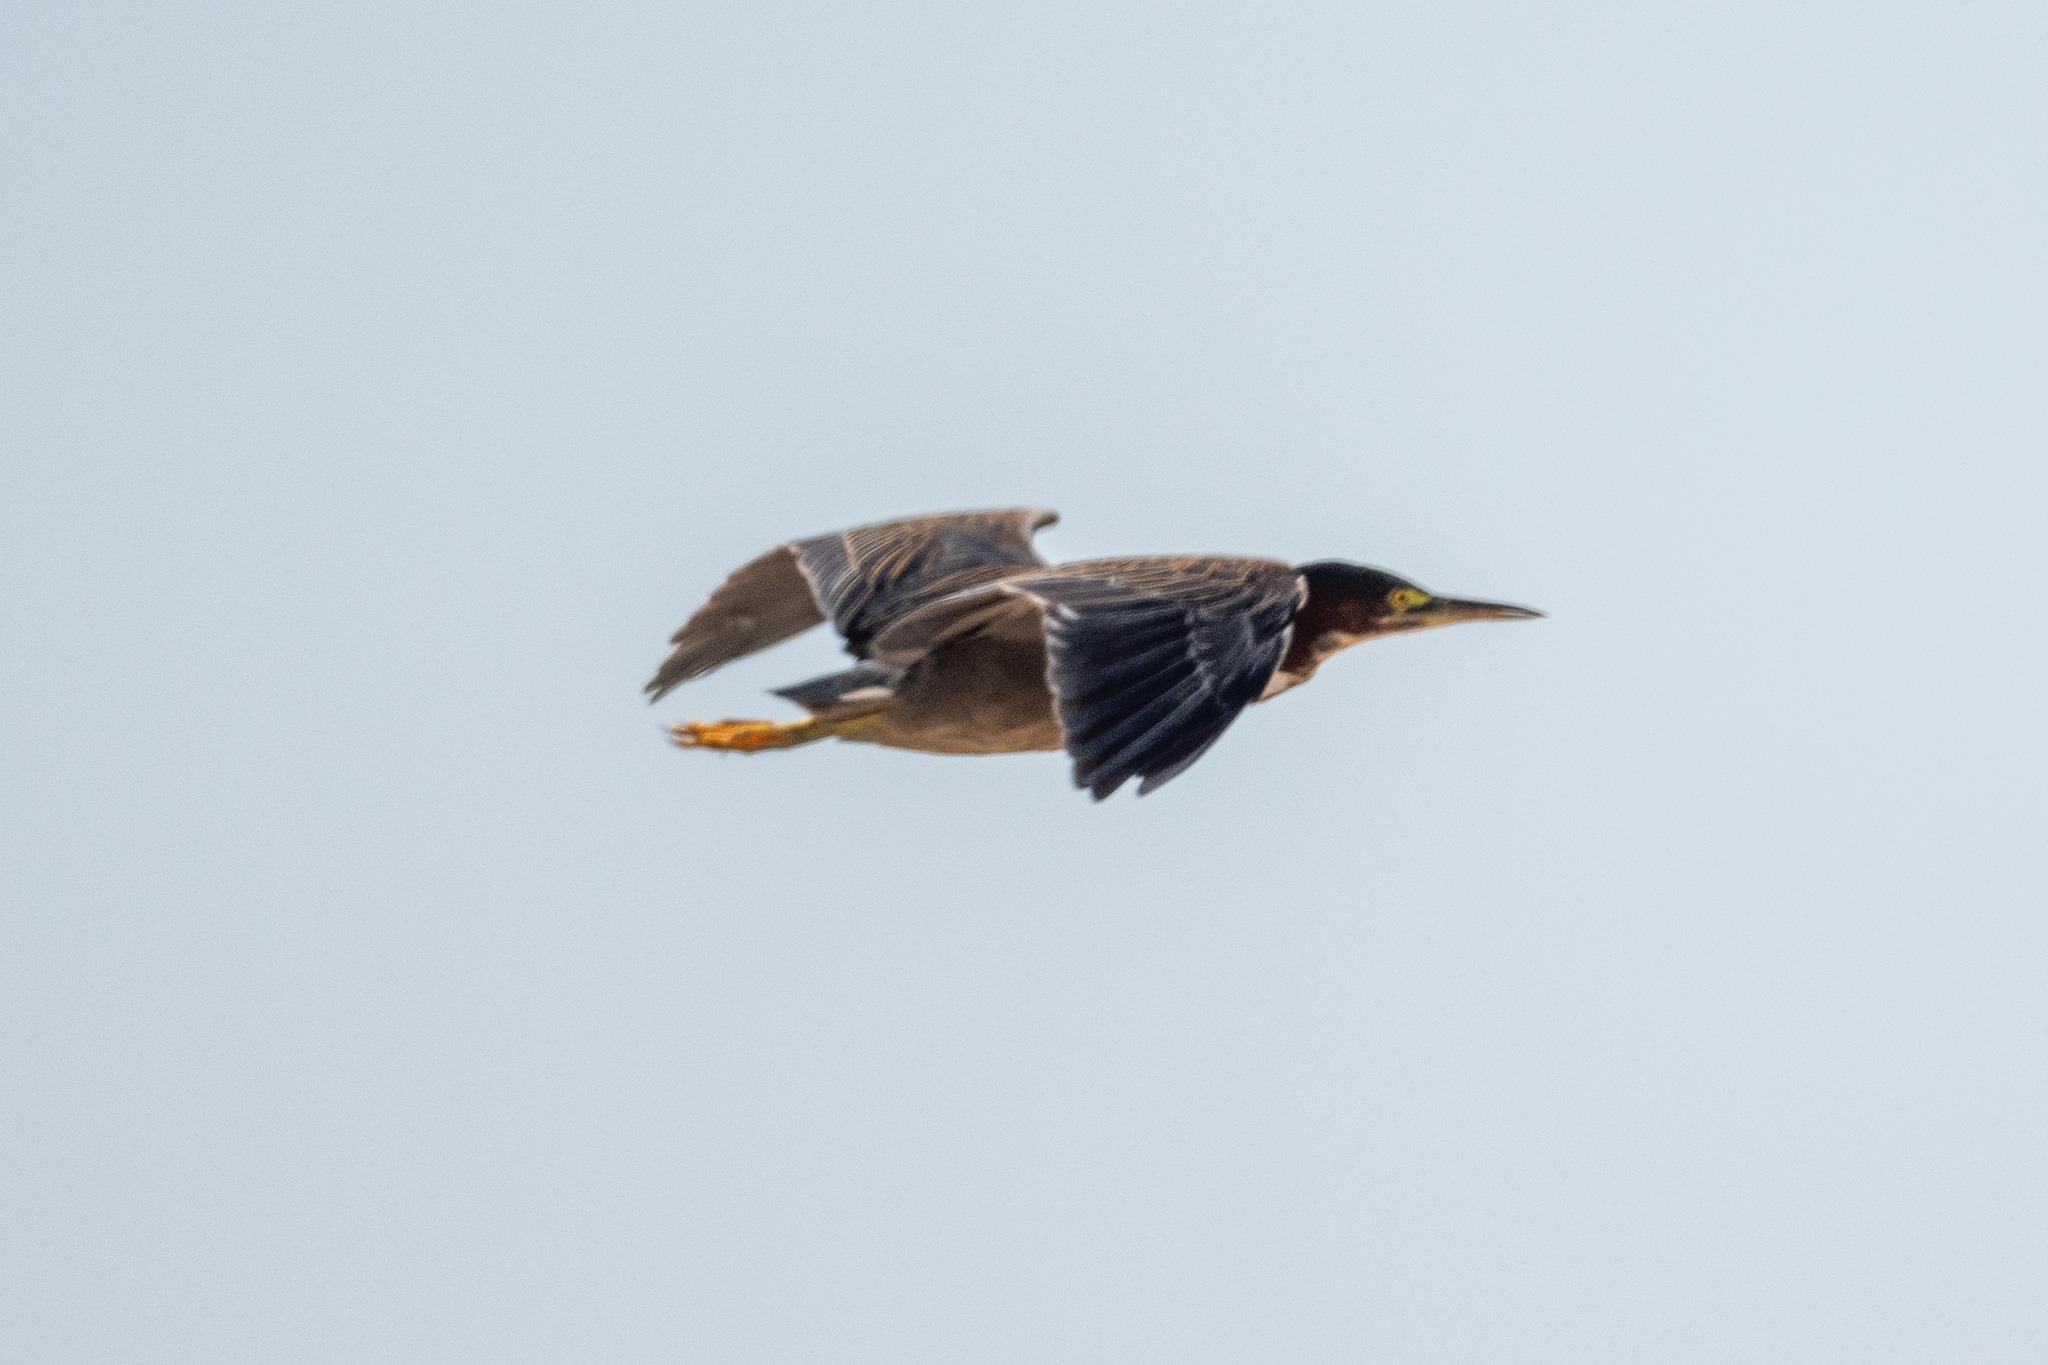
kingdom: Animalia
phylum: Chordata
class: Aves
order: Pelecaniformes
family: Ardeidae
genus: Butorides
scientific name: Butorides virescens
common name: Green heron
